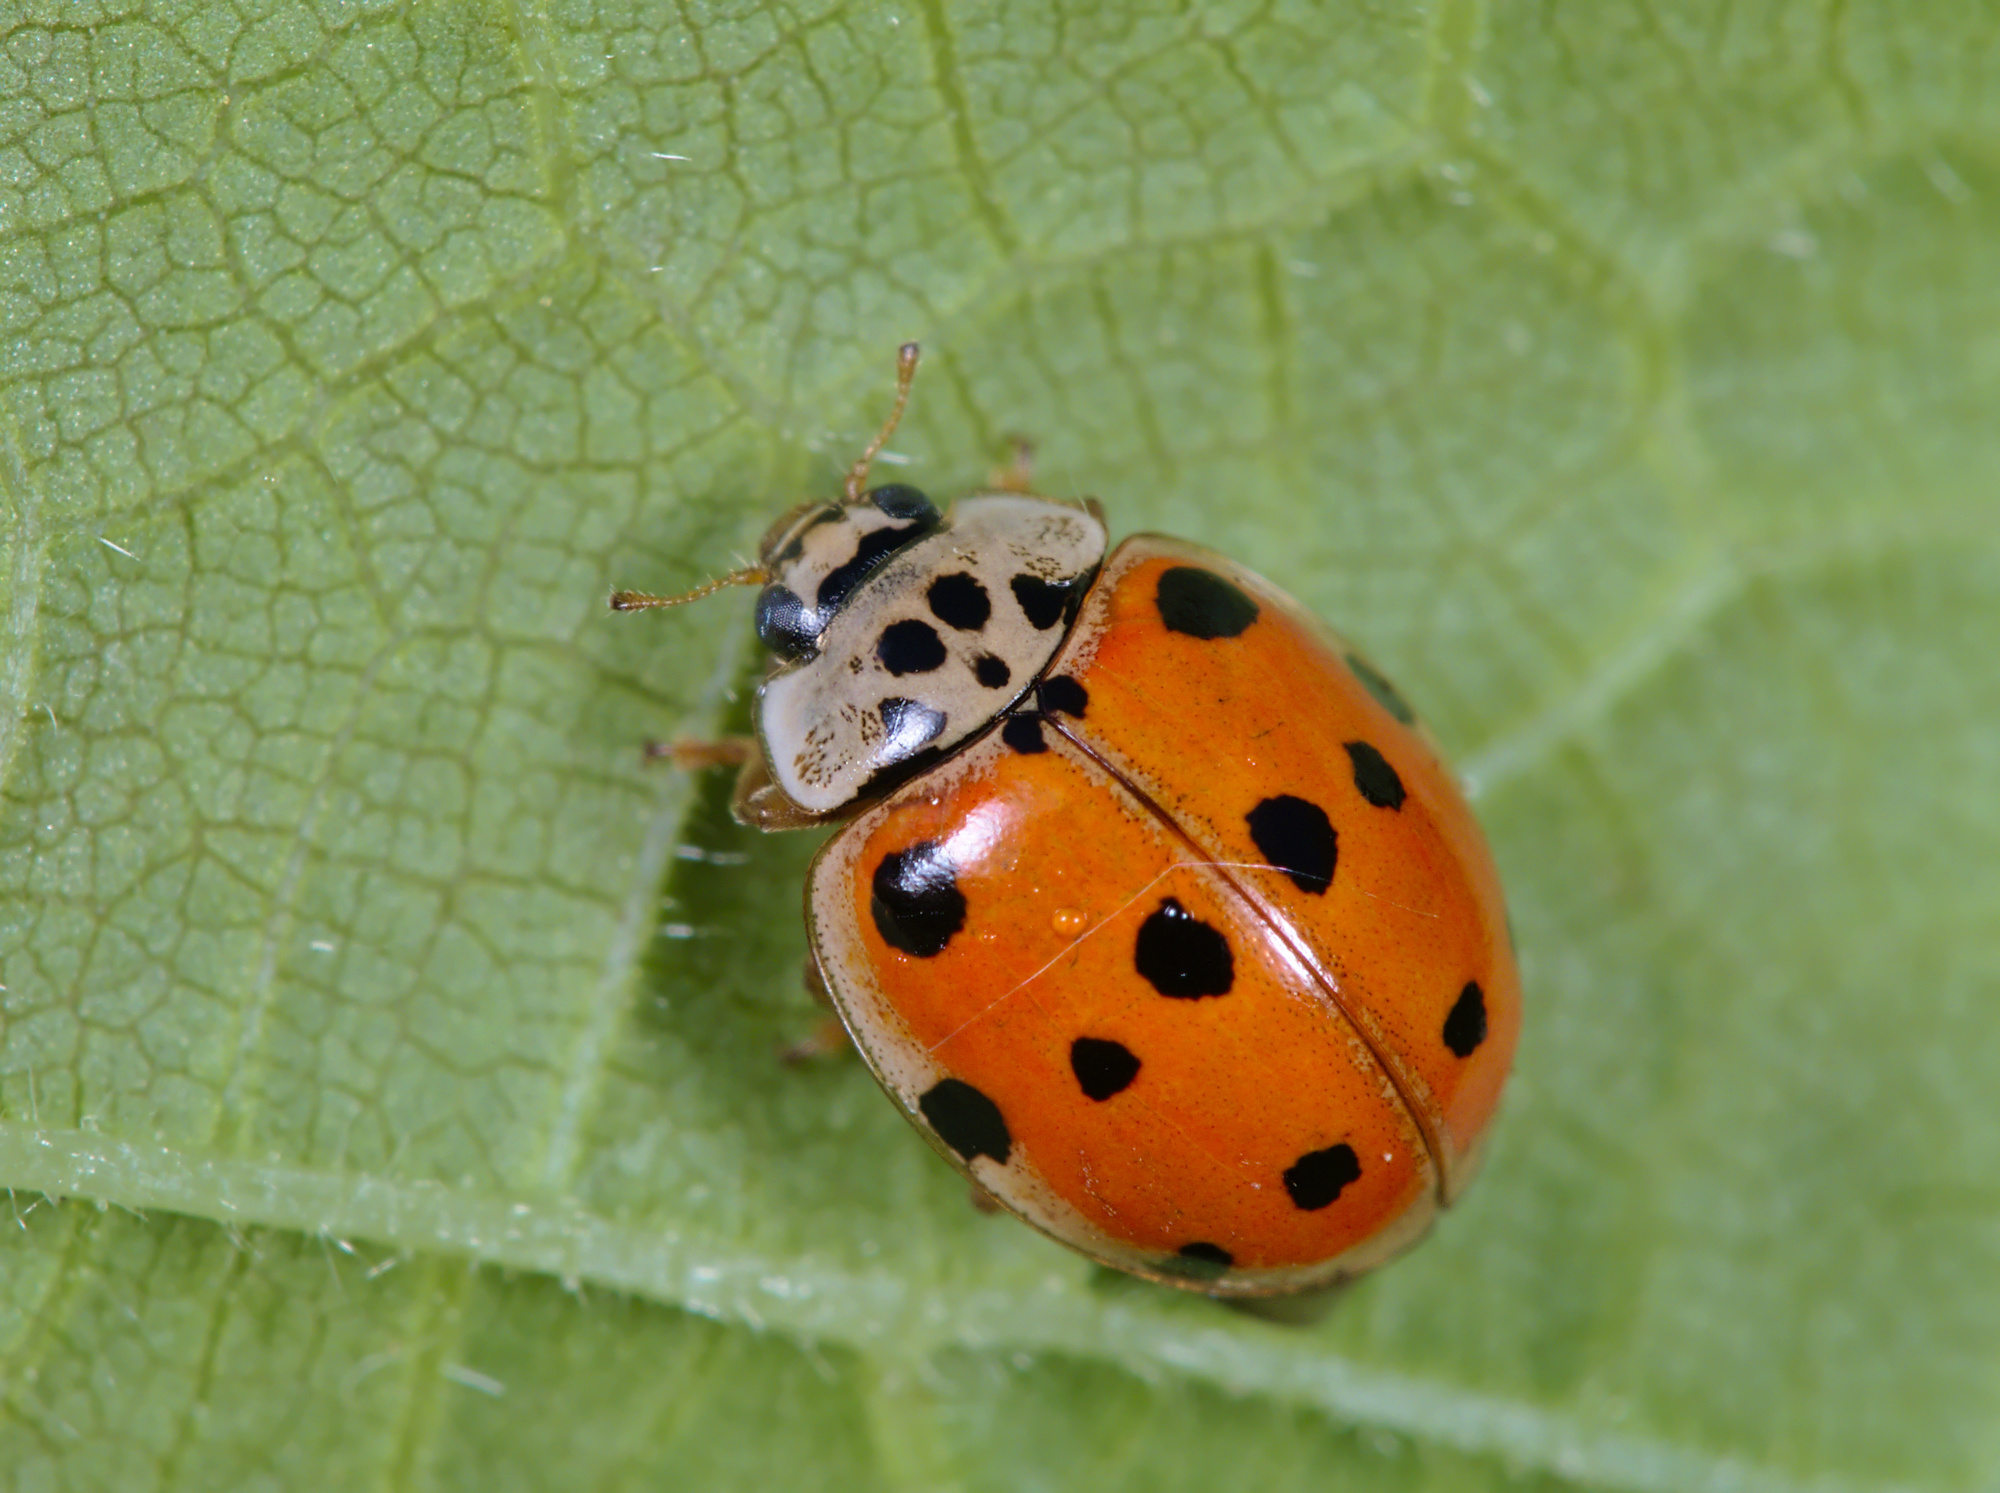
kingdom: Animalia
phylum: Arthropoda
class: Insecta
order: Coleoptera
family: Coccinellidae
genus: Adalia
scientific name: Adalia decempunctata
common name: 10-spot ladybird
